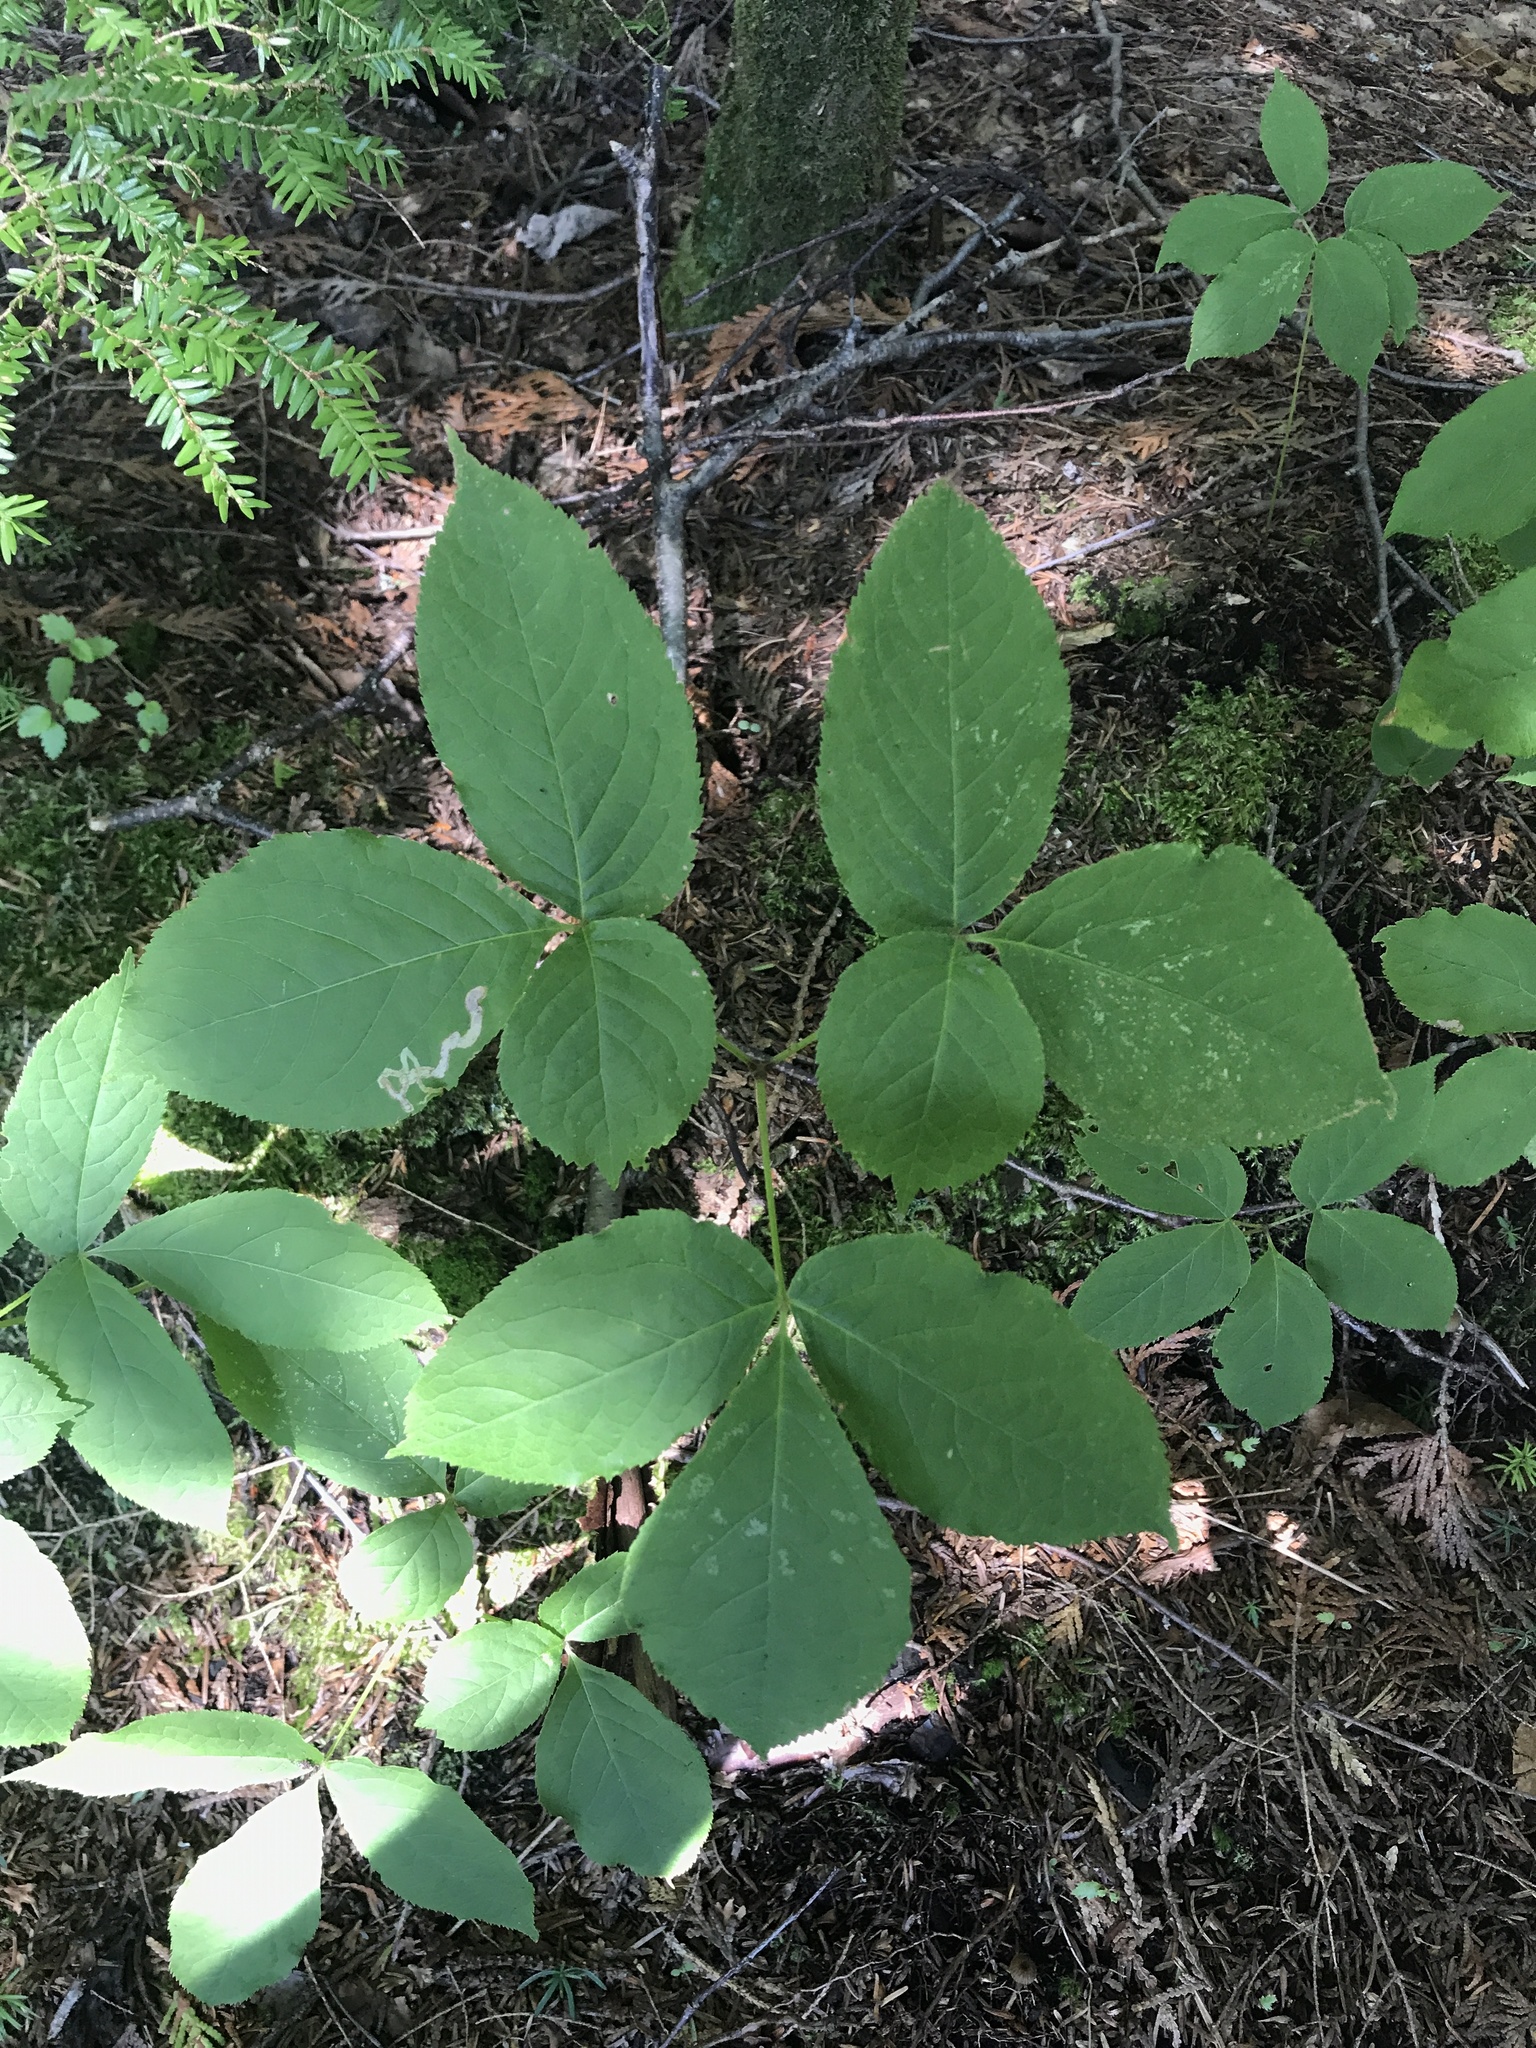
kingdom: Plantae
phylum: Tracheophyta
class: Magnoliopsida
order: Apiales
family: Araliaceae
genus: Aralia
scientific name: Aralia nudicaulis
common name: Wild sarsaparilla
